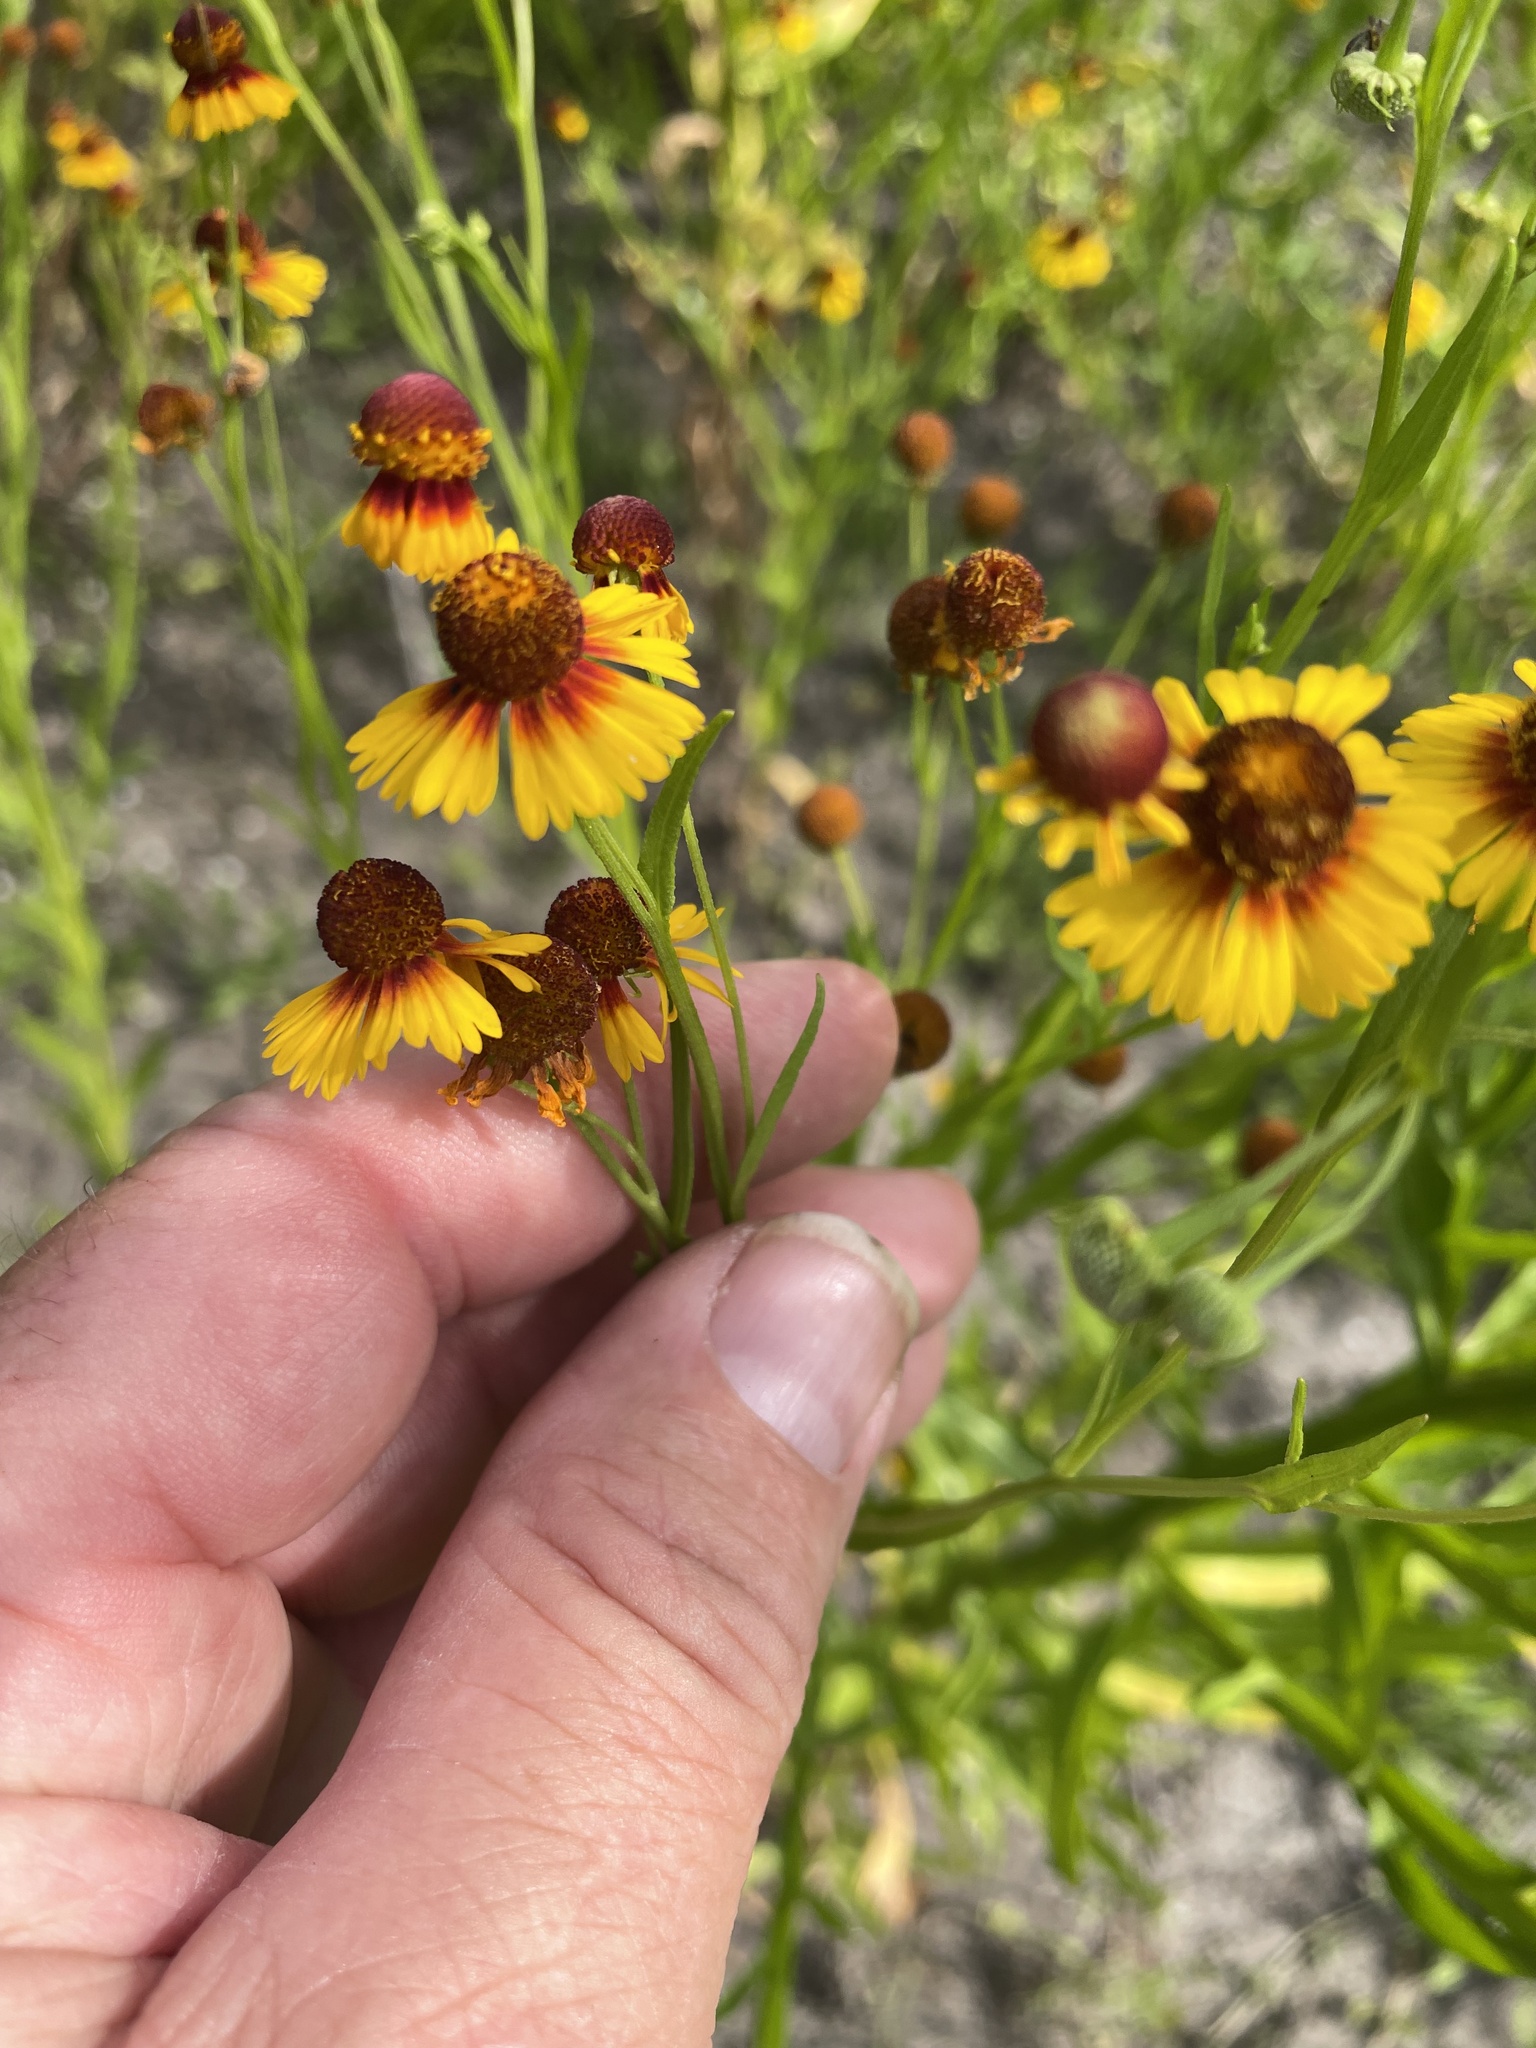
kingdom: Plantae
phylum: Tracheophyta
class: Magnoliopsida
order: Asterales
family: Asteraceae
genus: Helenium
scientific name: Helenium elegans
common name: Pretty sneezeweed
